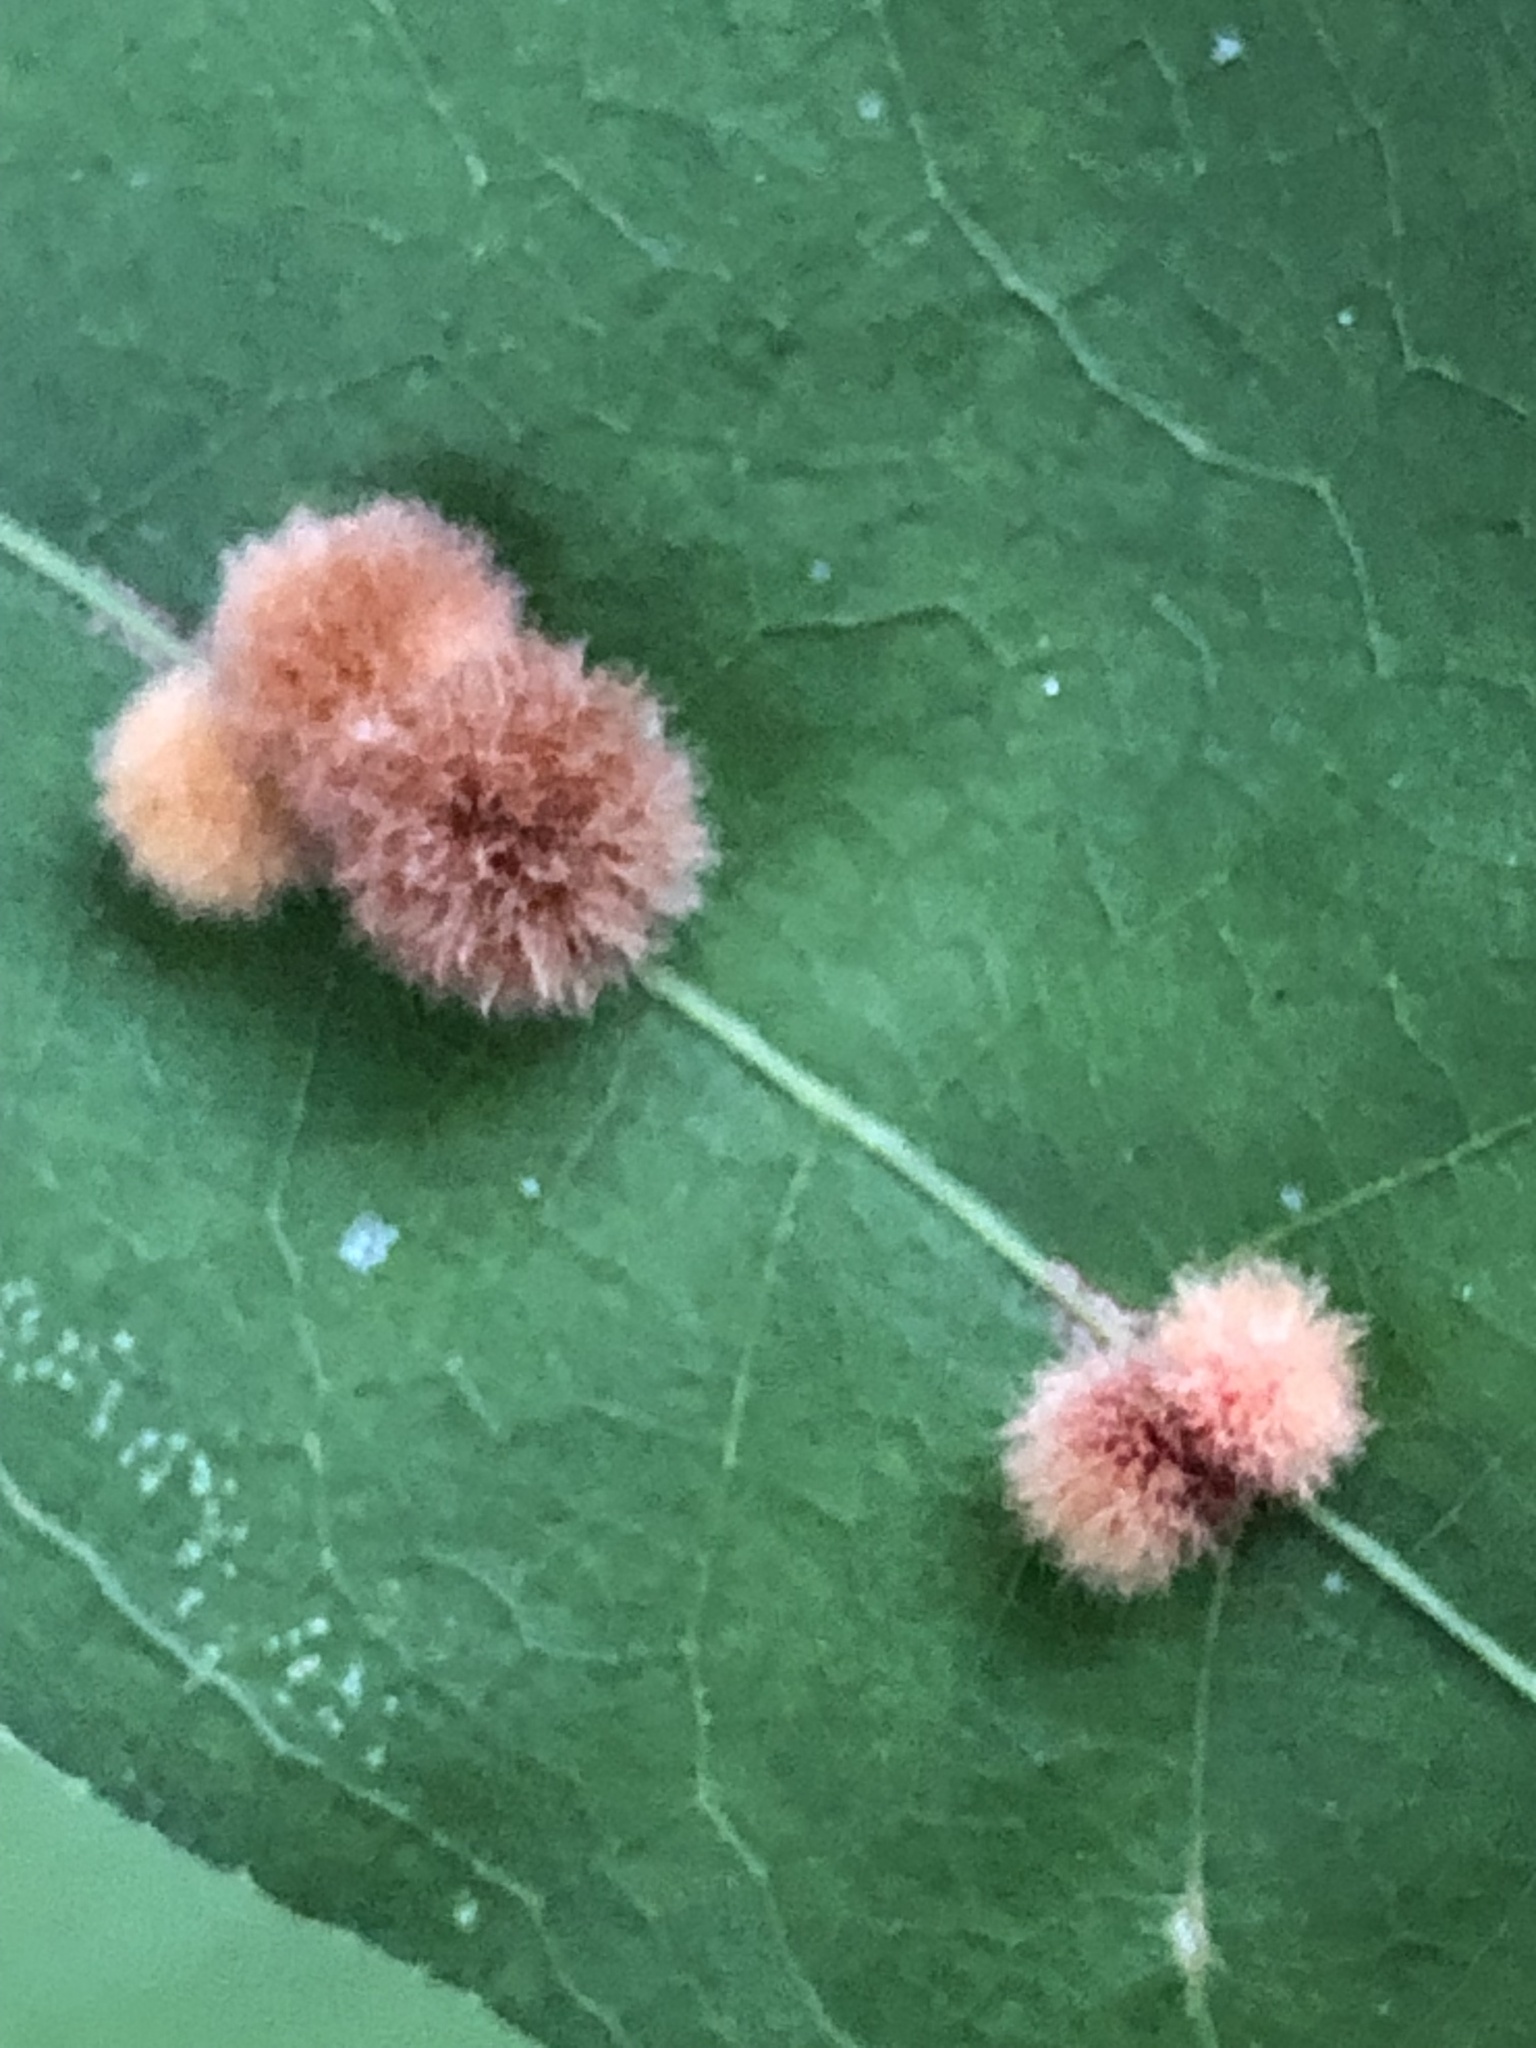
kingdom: Animalia
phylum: Arthropoda
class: Insecta
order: Hymenoptera
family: Cynipidae
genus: Callirhytis
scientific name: Callirhytis
